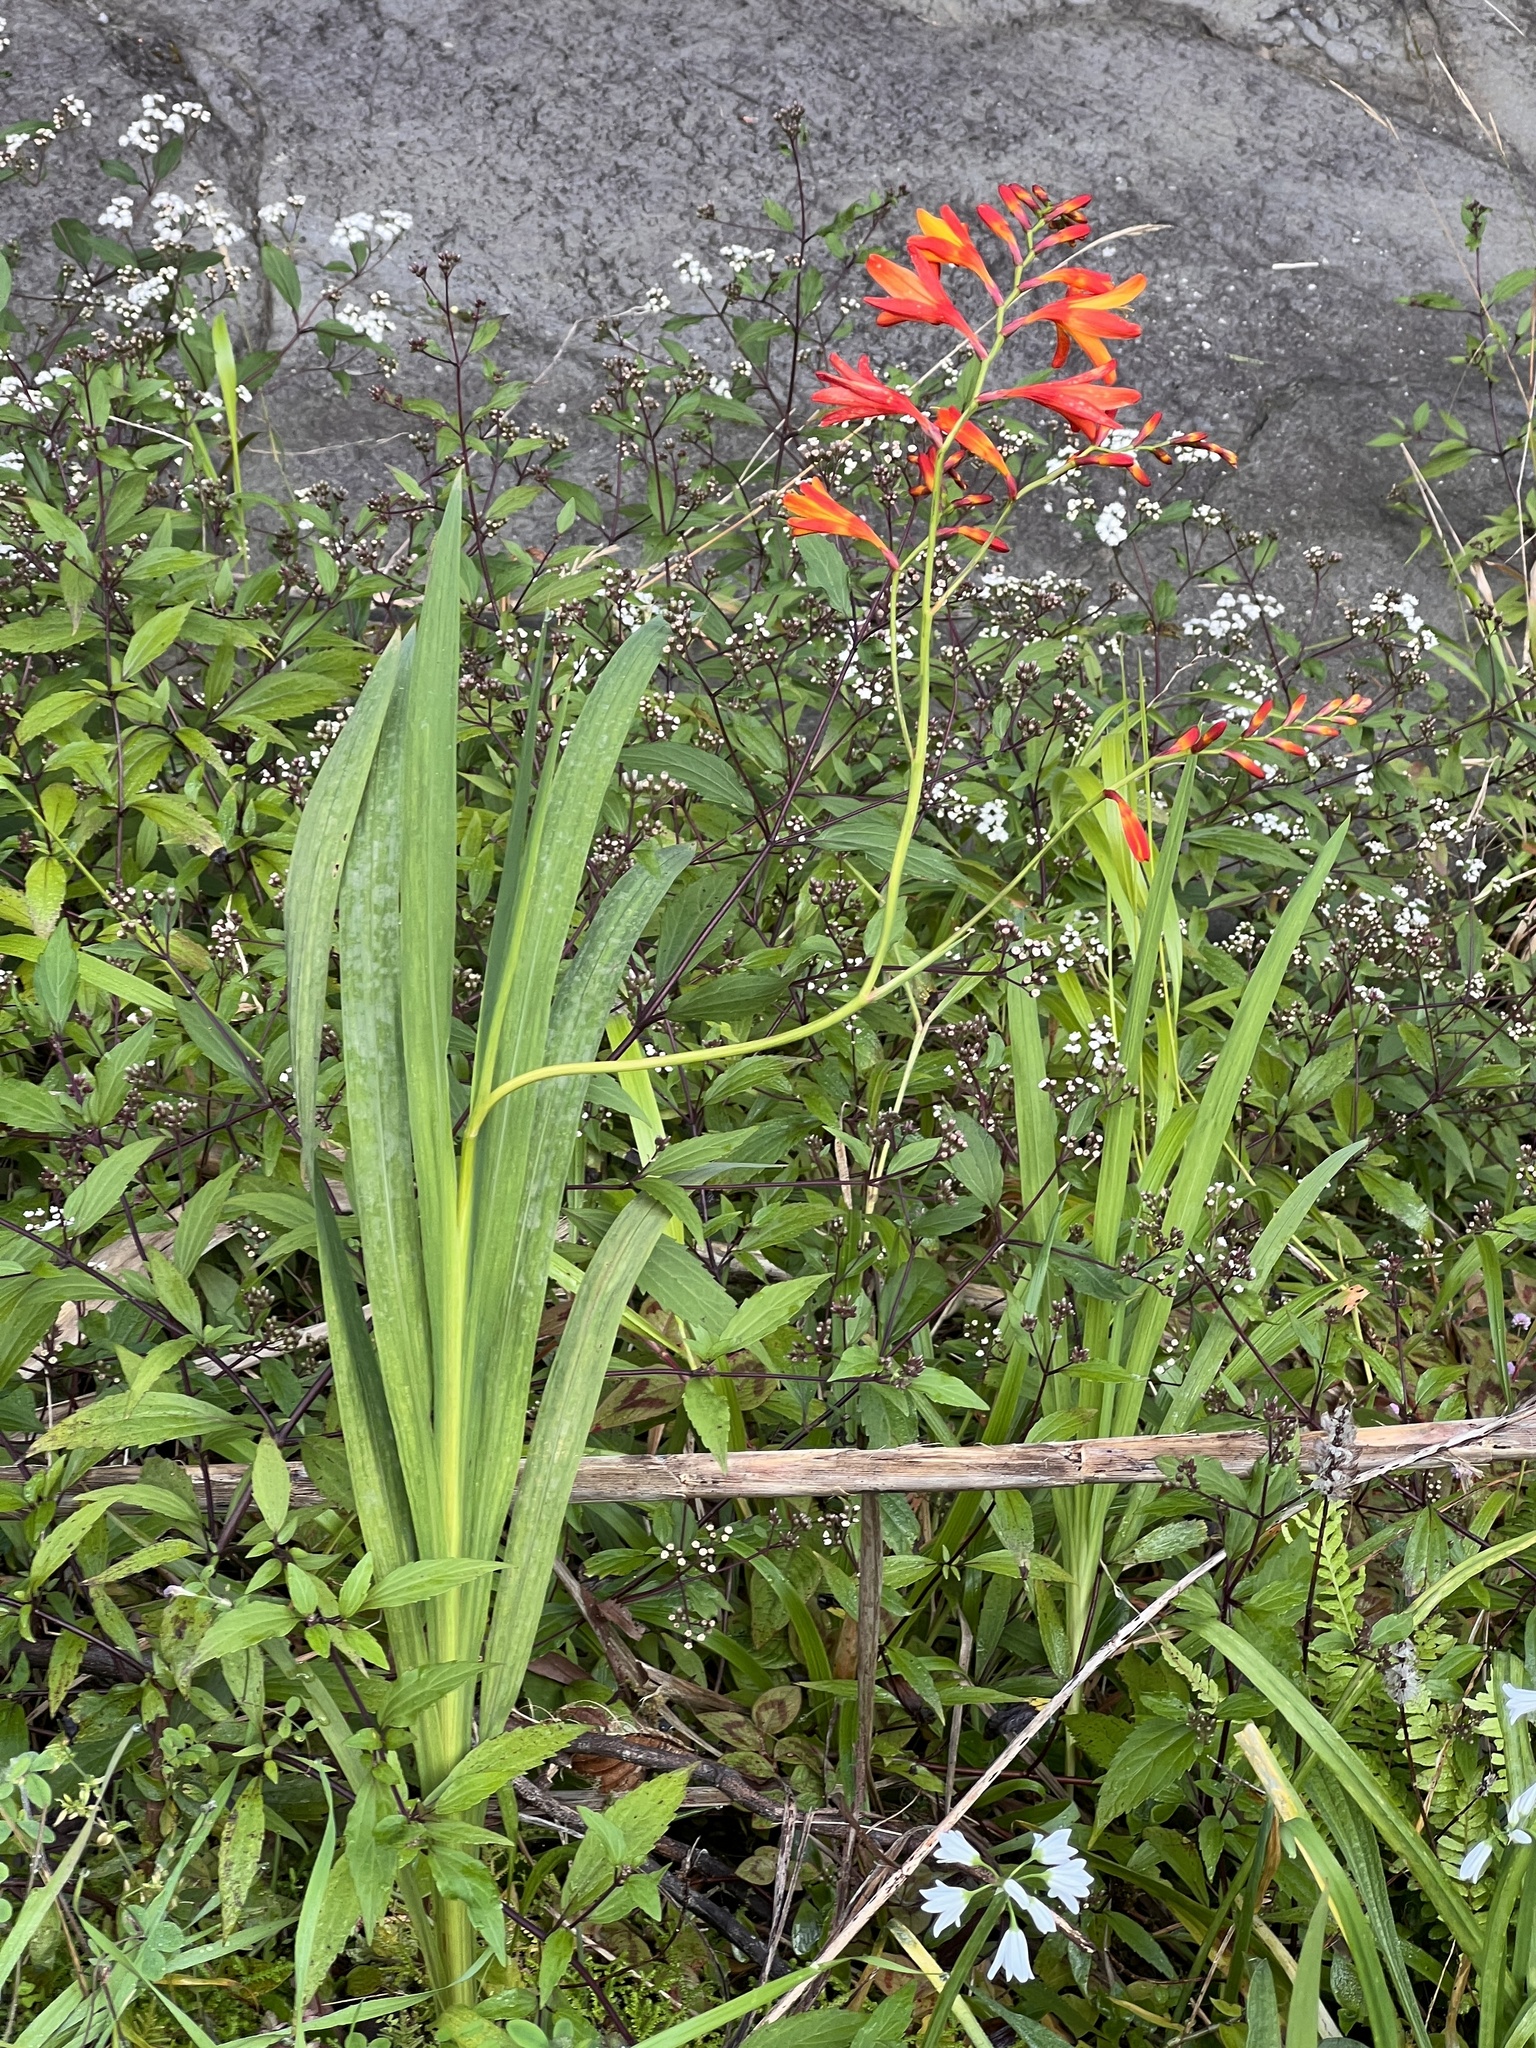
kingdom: Plantae
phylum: Tracheophyta
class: Liliopsida
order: Asparagales
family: Iridaceae
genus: Crocosmia
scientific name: Crocosmia crocosmiiflora
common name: Montbretia
